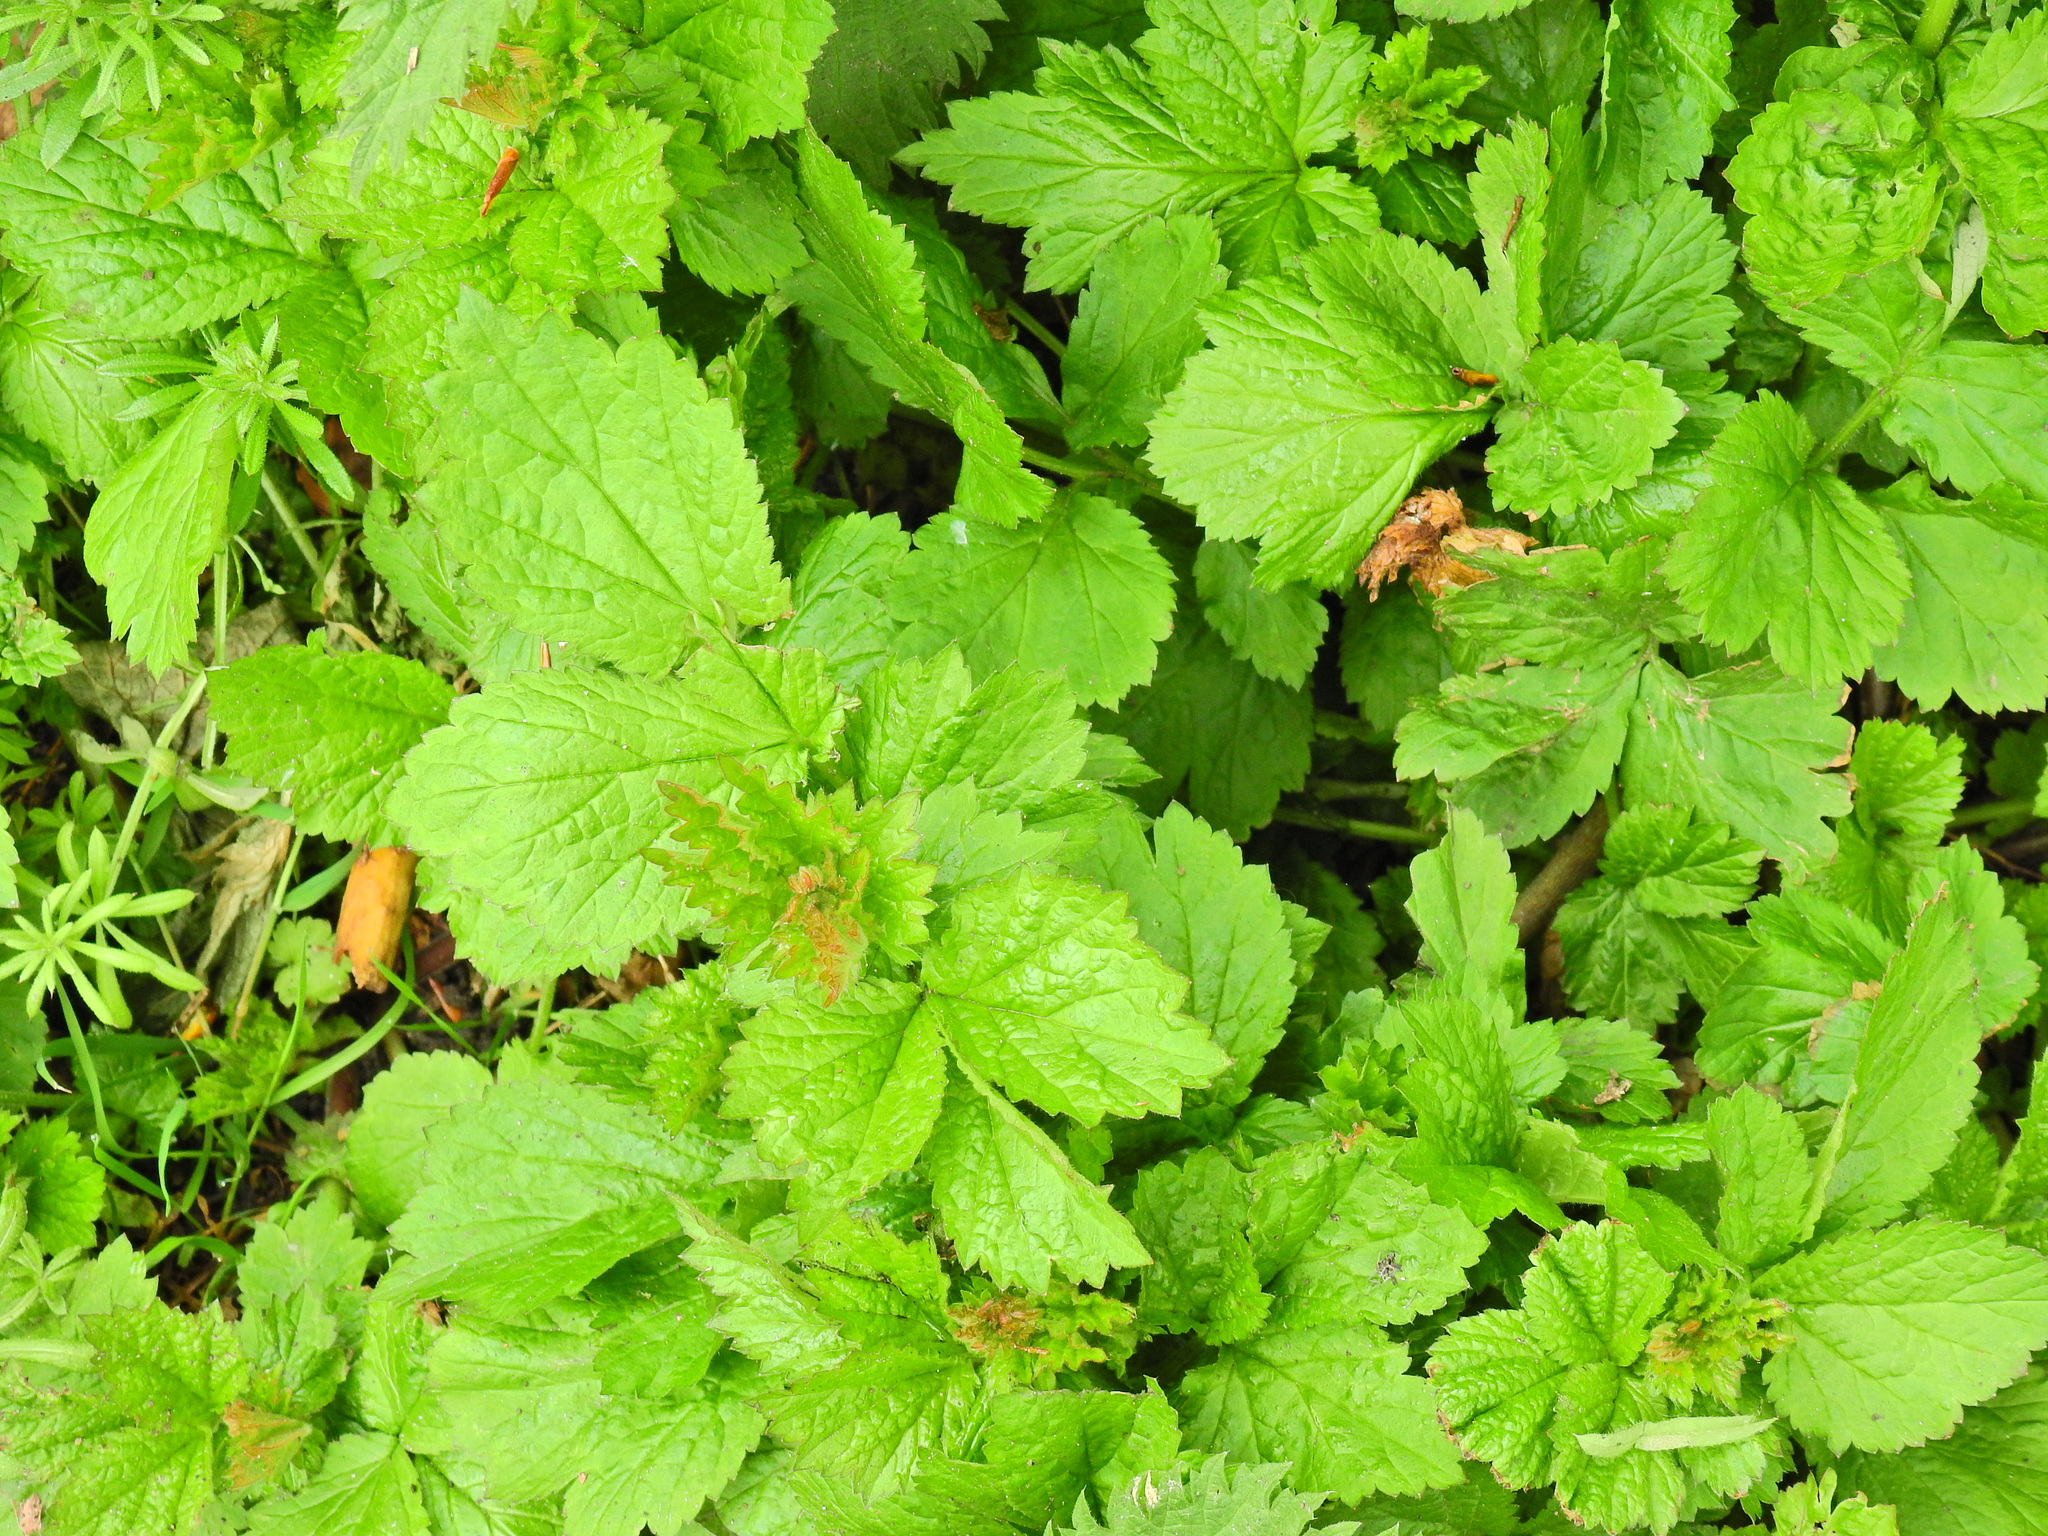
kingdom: Plantae
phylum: Tracheophyta
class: Magnoliopsida
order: Rosales
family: Rosaceae
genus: Geum
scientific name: Geum urbanum
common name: Wood avens
